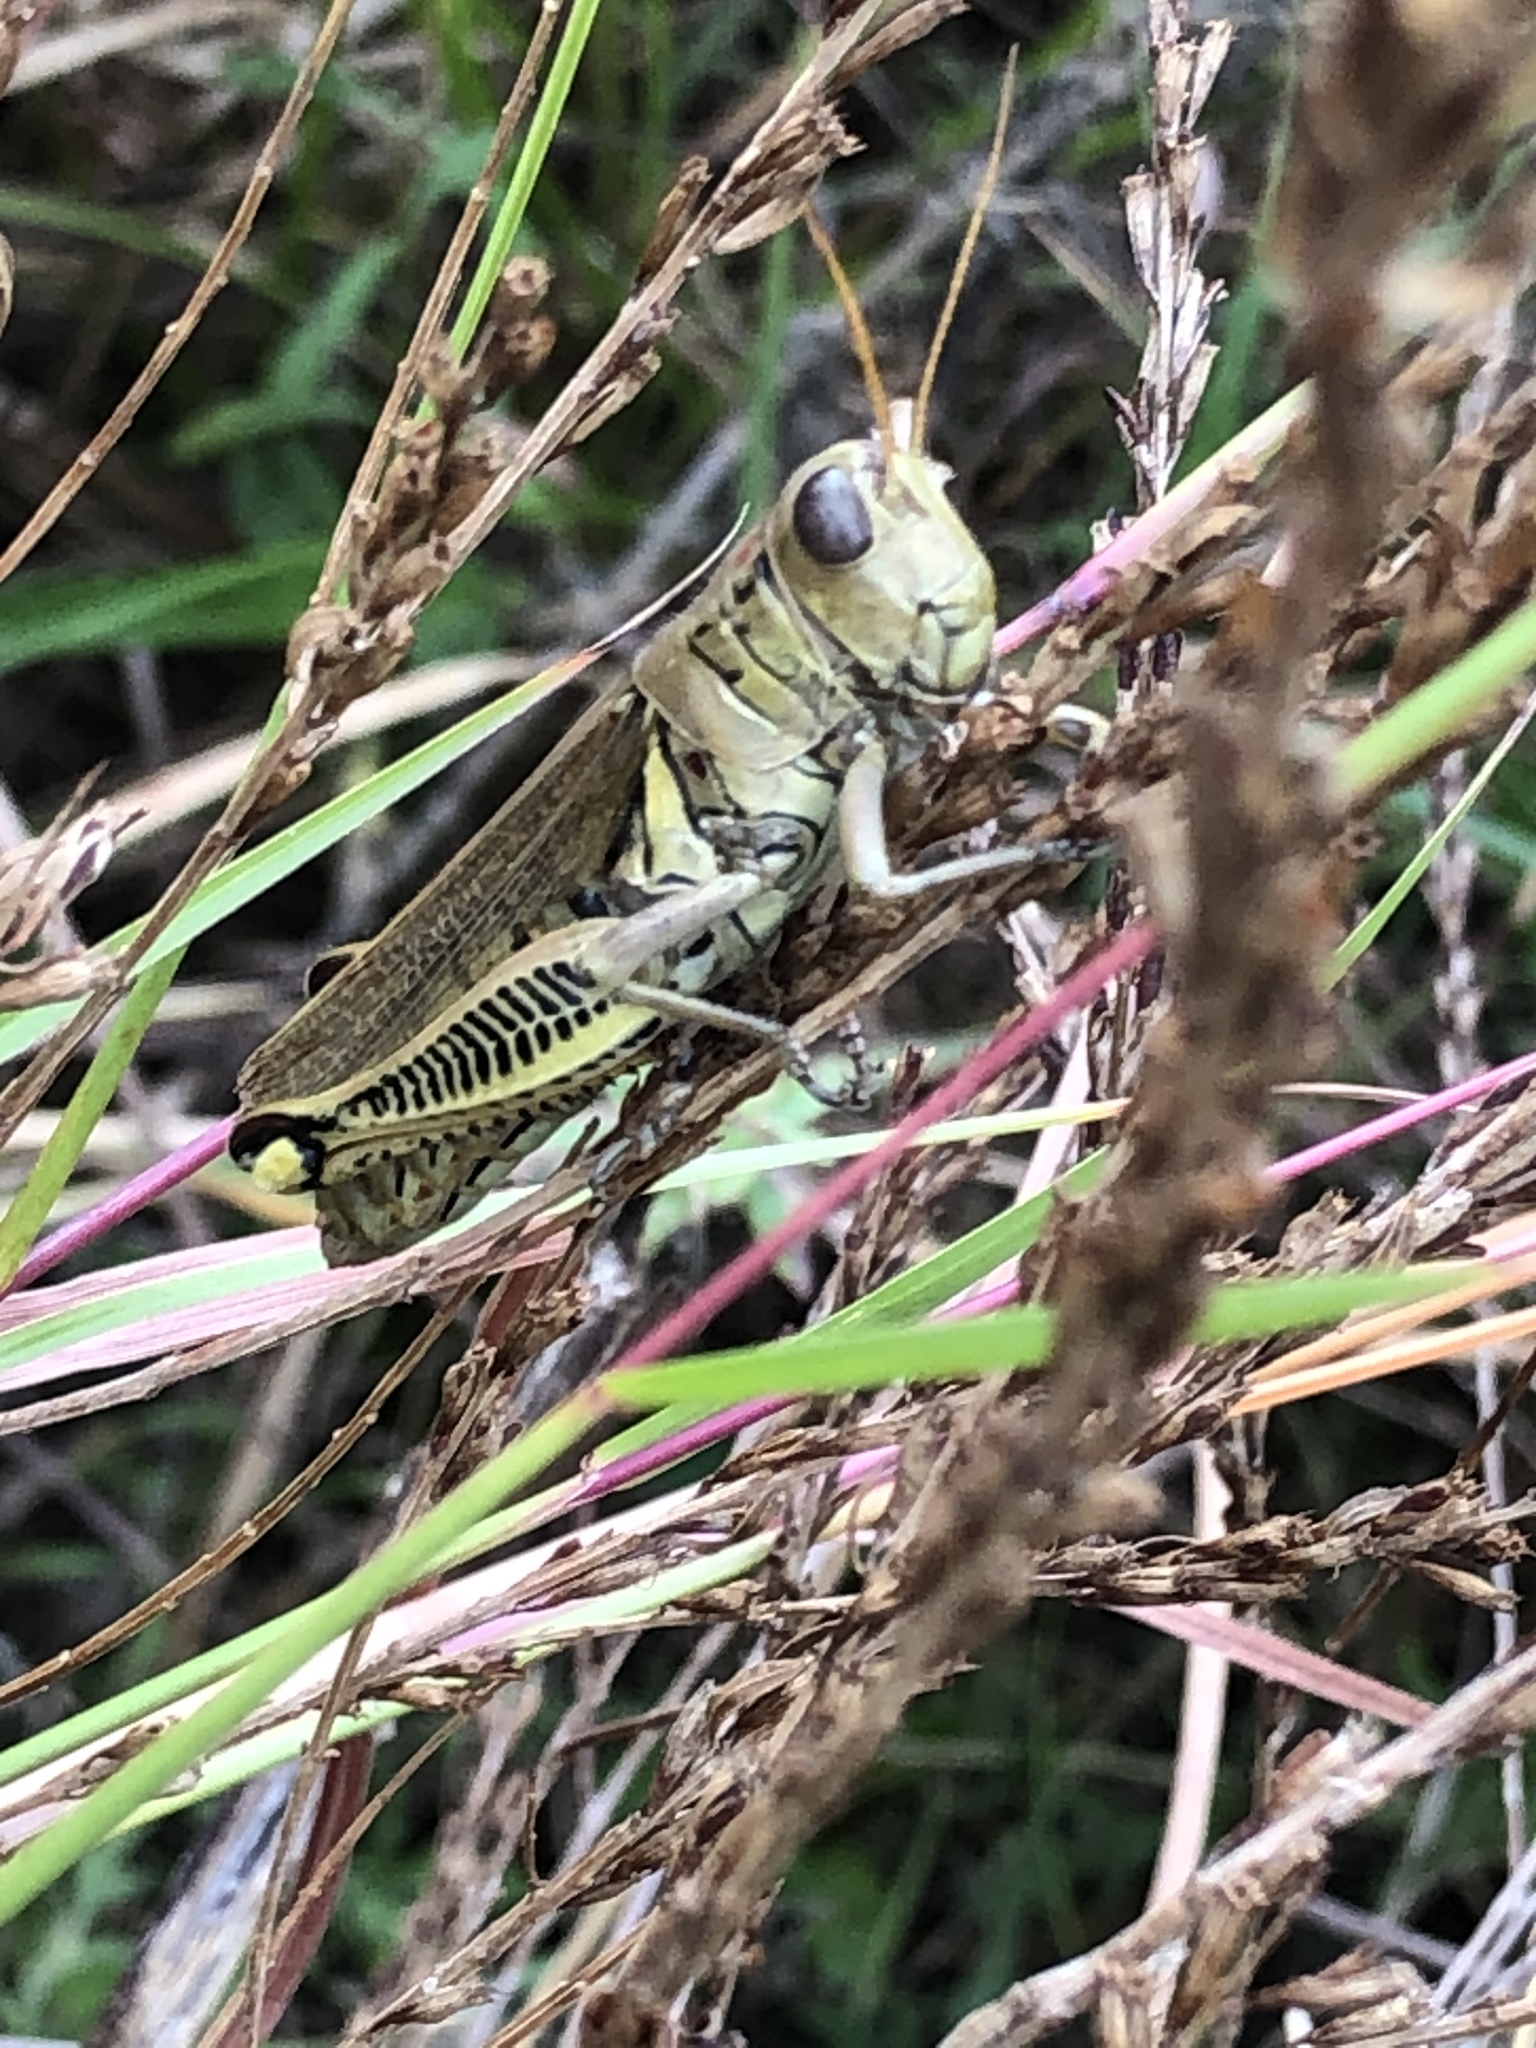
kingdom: Animalia
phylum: Arthropoda
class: Insecta
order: Orthoptera
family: Acrididae
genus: Melanoplus
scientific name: Melanoplus differentialis
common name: Differential grasshopper
